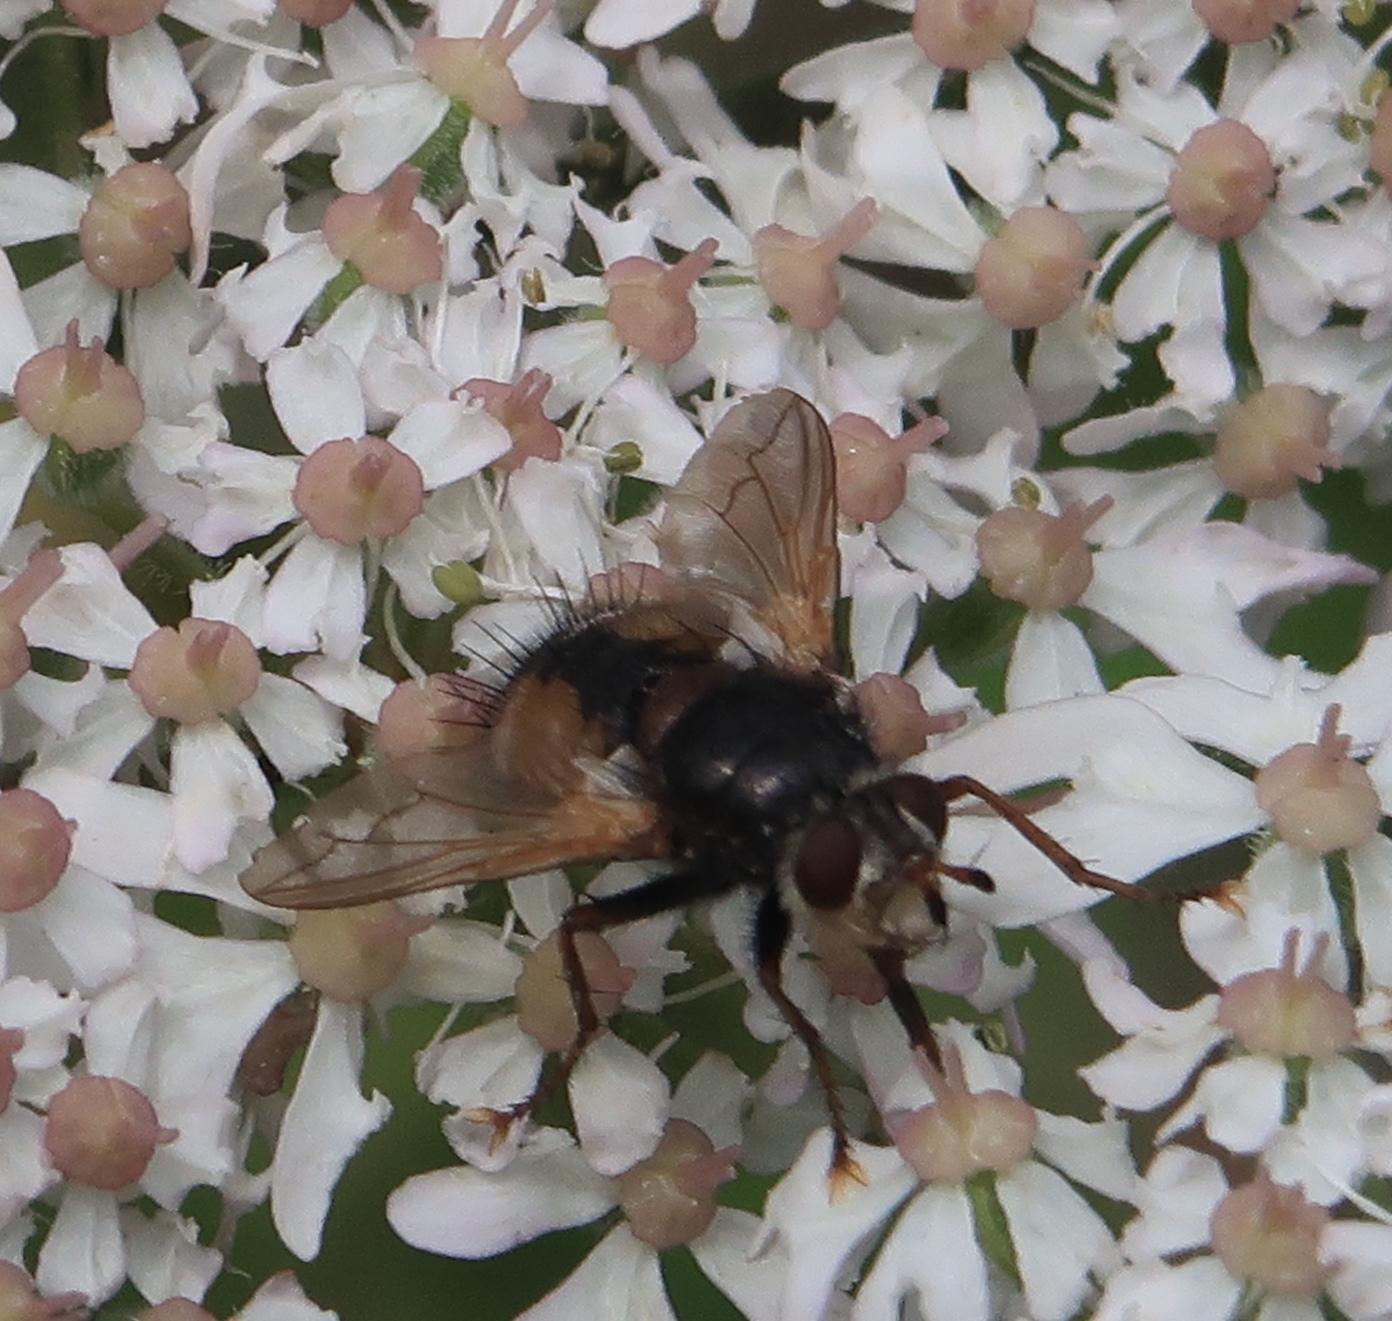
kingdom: Animalia
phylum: Arthropoda
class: Insecta
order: Diptera
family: Tachinidae
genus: Tachina
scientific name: Tachina fera
